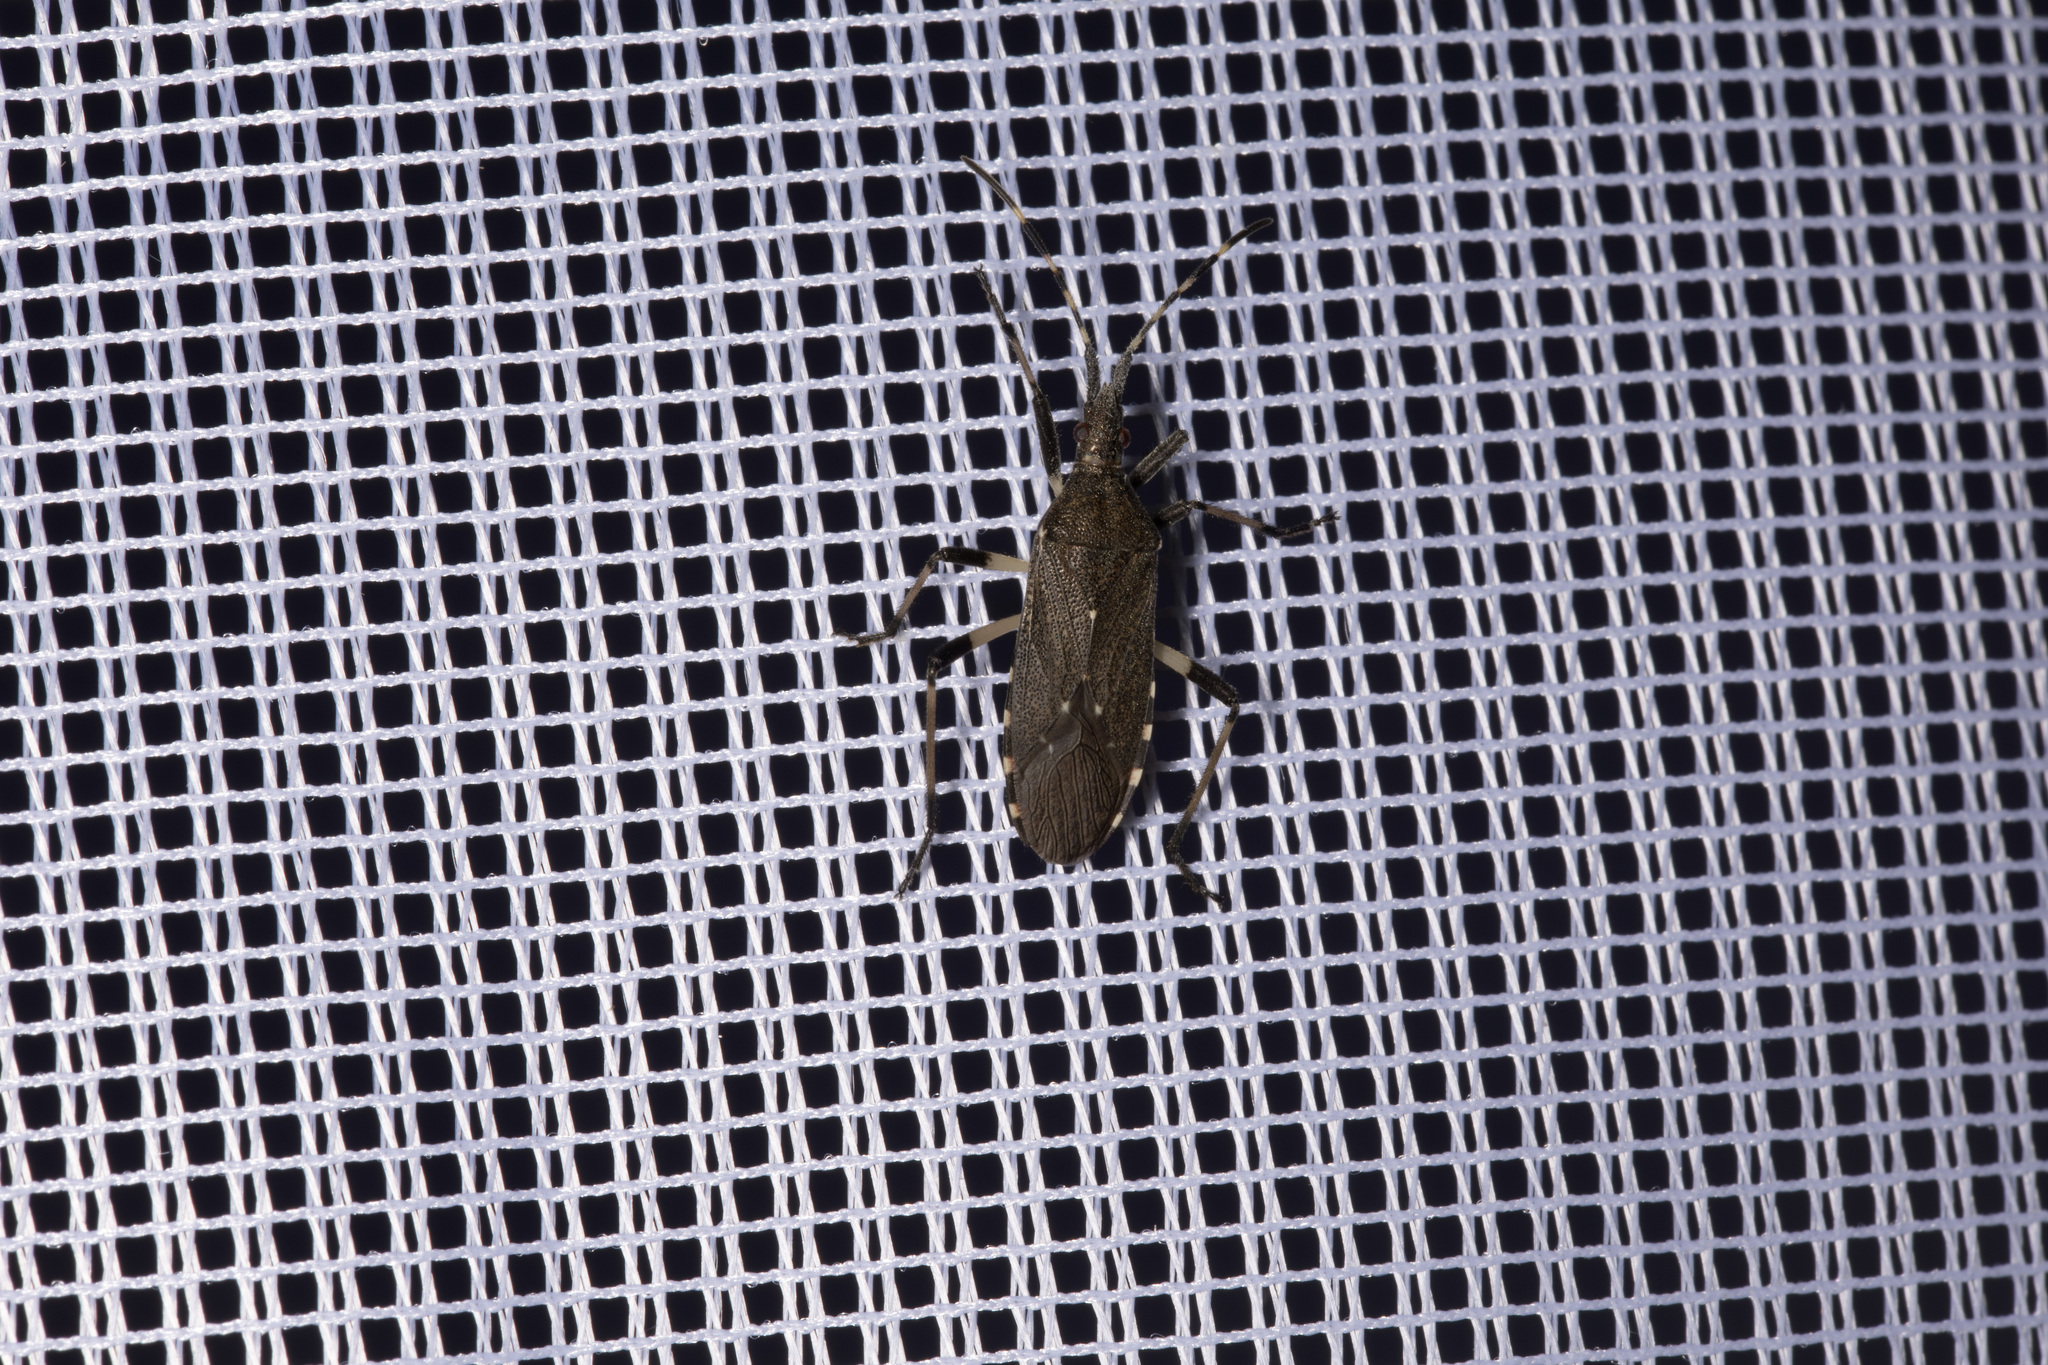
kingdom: Animalia
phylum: Arthropoda
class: Insecta
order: Hemiptera
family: Stenocephalidae
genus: Dicranocephalus
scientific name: Dicranocephalus agilis
